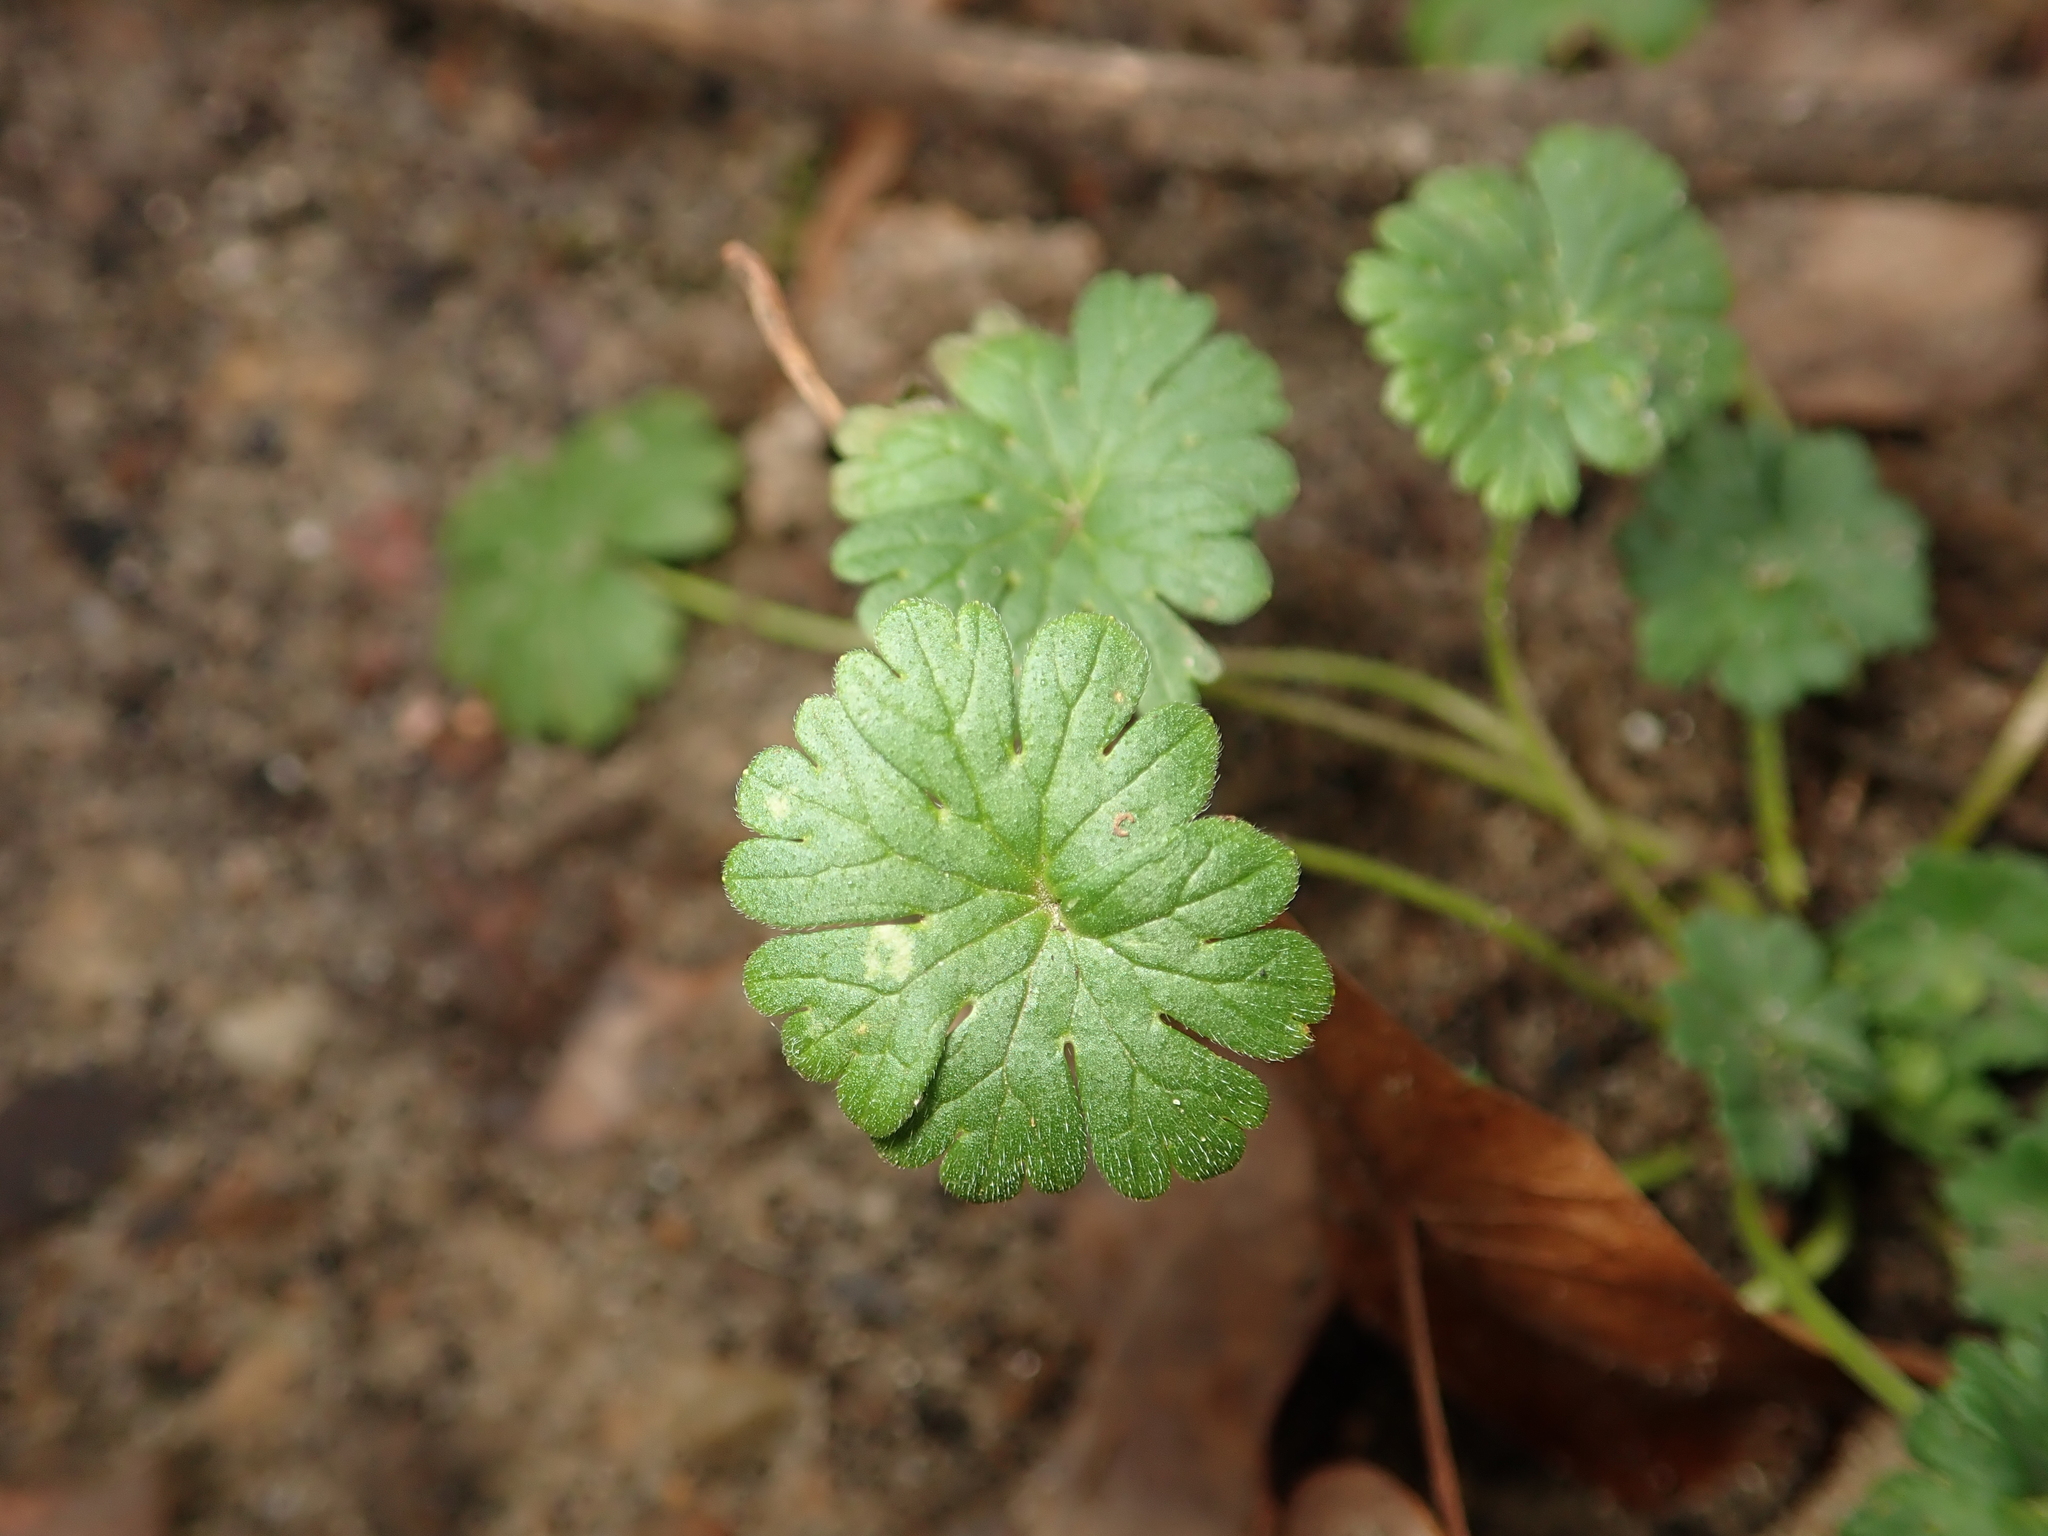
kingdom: Plantae
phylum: Tracheophyta
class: Magnoliopsida
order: Geraniales
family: Geraniaceae
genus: Geranium
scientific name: Geranium molle
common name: Dove's-foot crane's-bill
